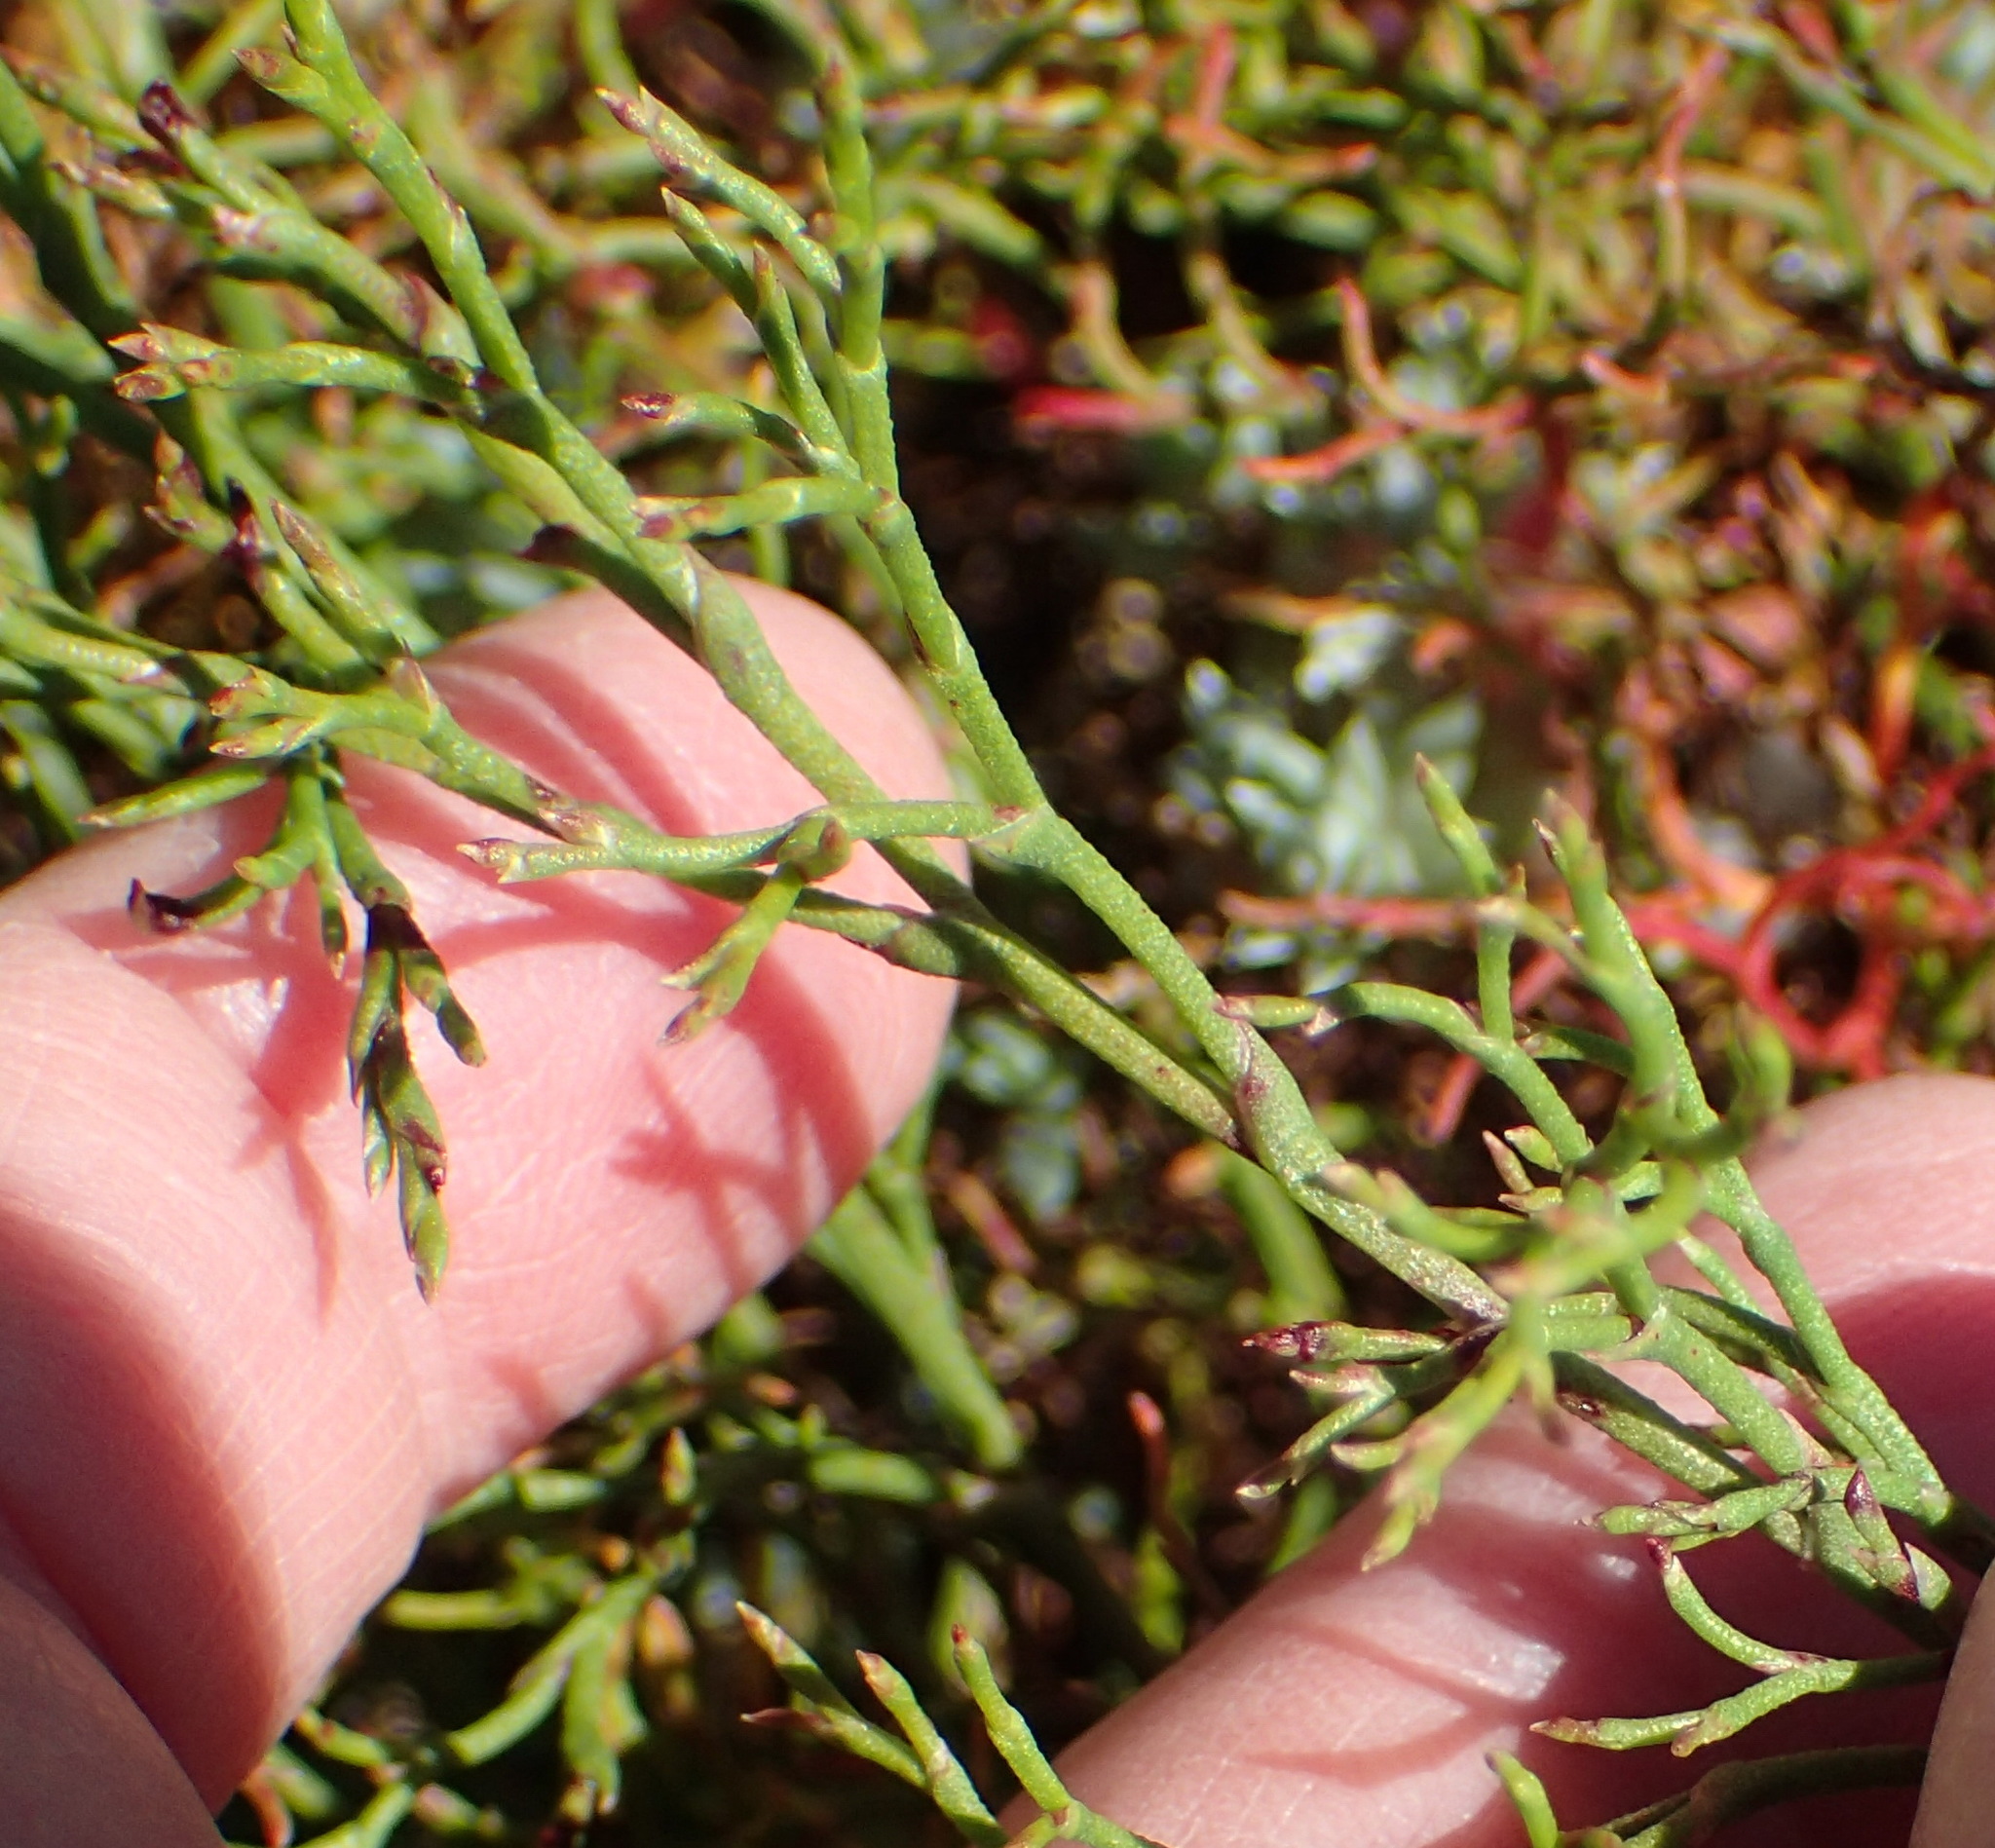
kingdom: Plantae
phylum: Tracheophyta
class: Magnoliopsida
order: Caryophyllales
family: Plumbaginaceae
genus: Limonium
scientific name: Limonium scabrum
